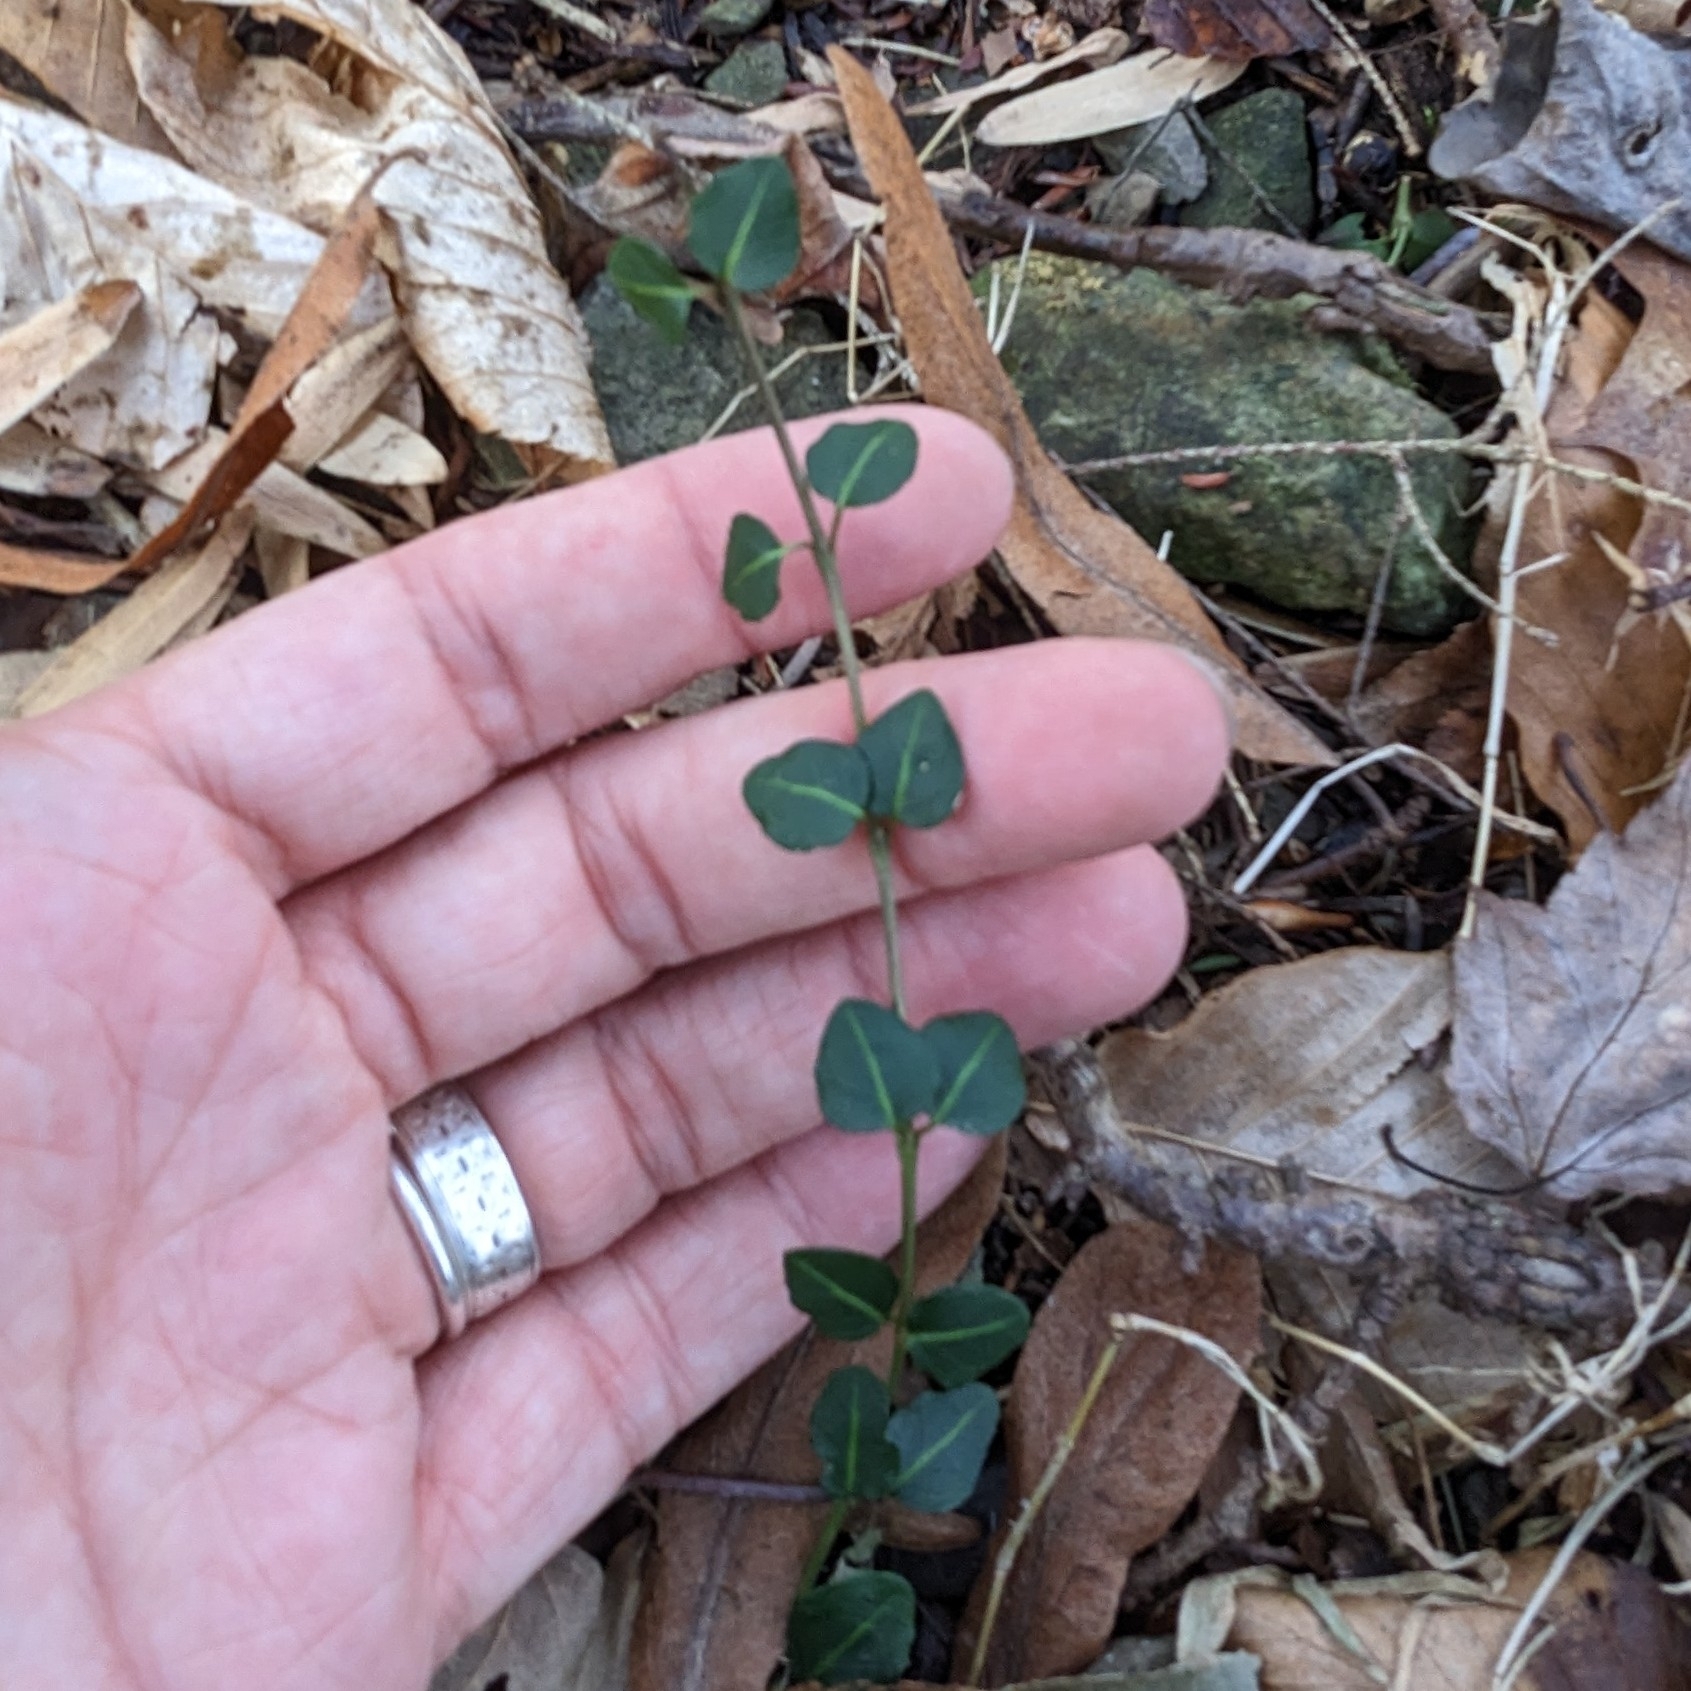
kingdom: Plantae
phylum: Tracheophyta
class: Magnoliopsida
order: Gentianales
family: Rubiaceae
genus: Mitchella
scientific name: Mitchella repens
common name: Partridge-berry
